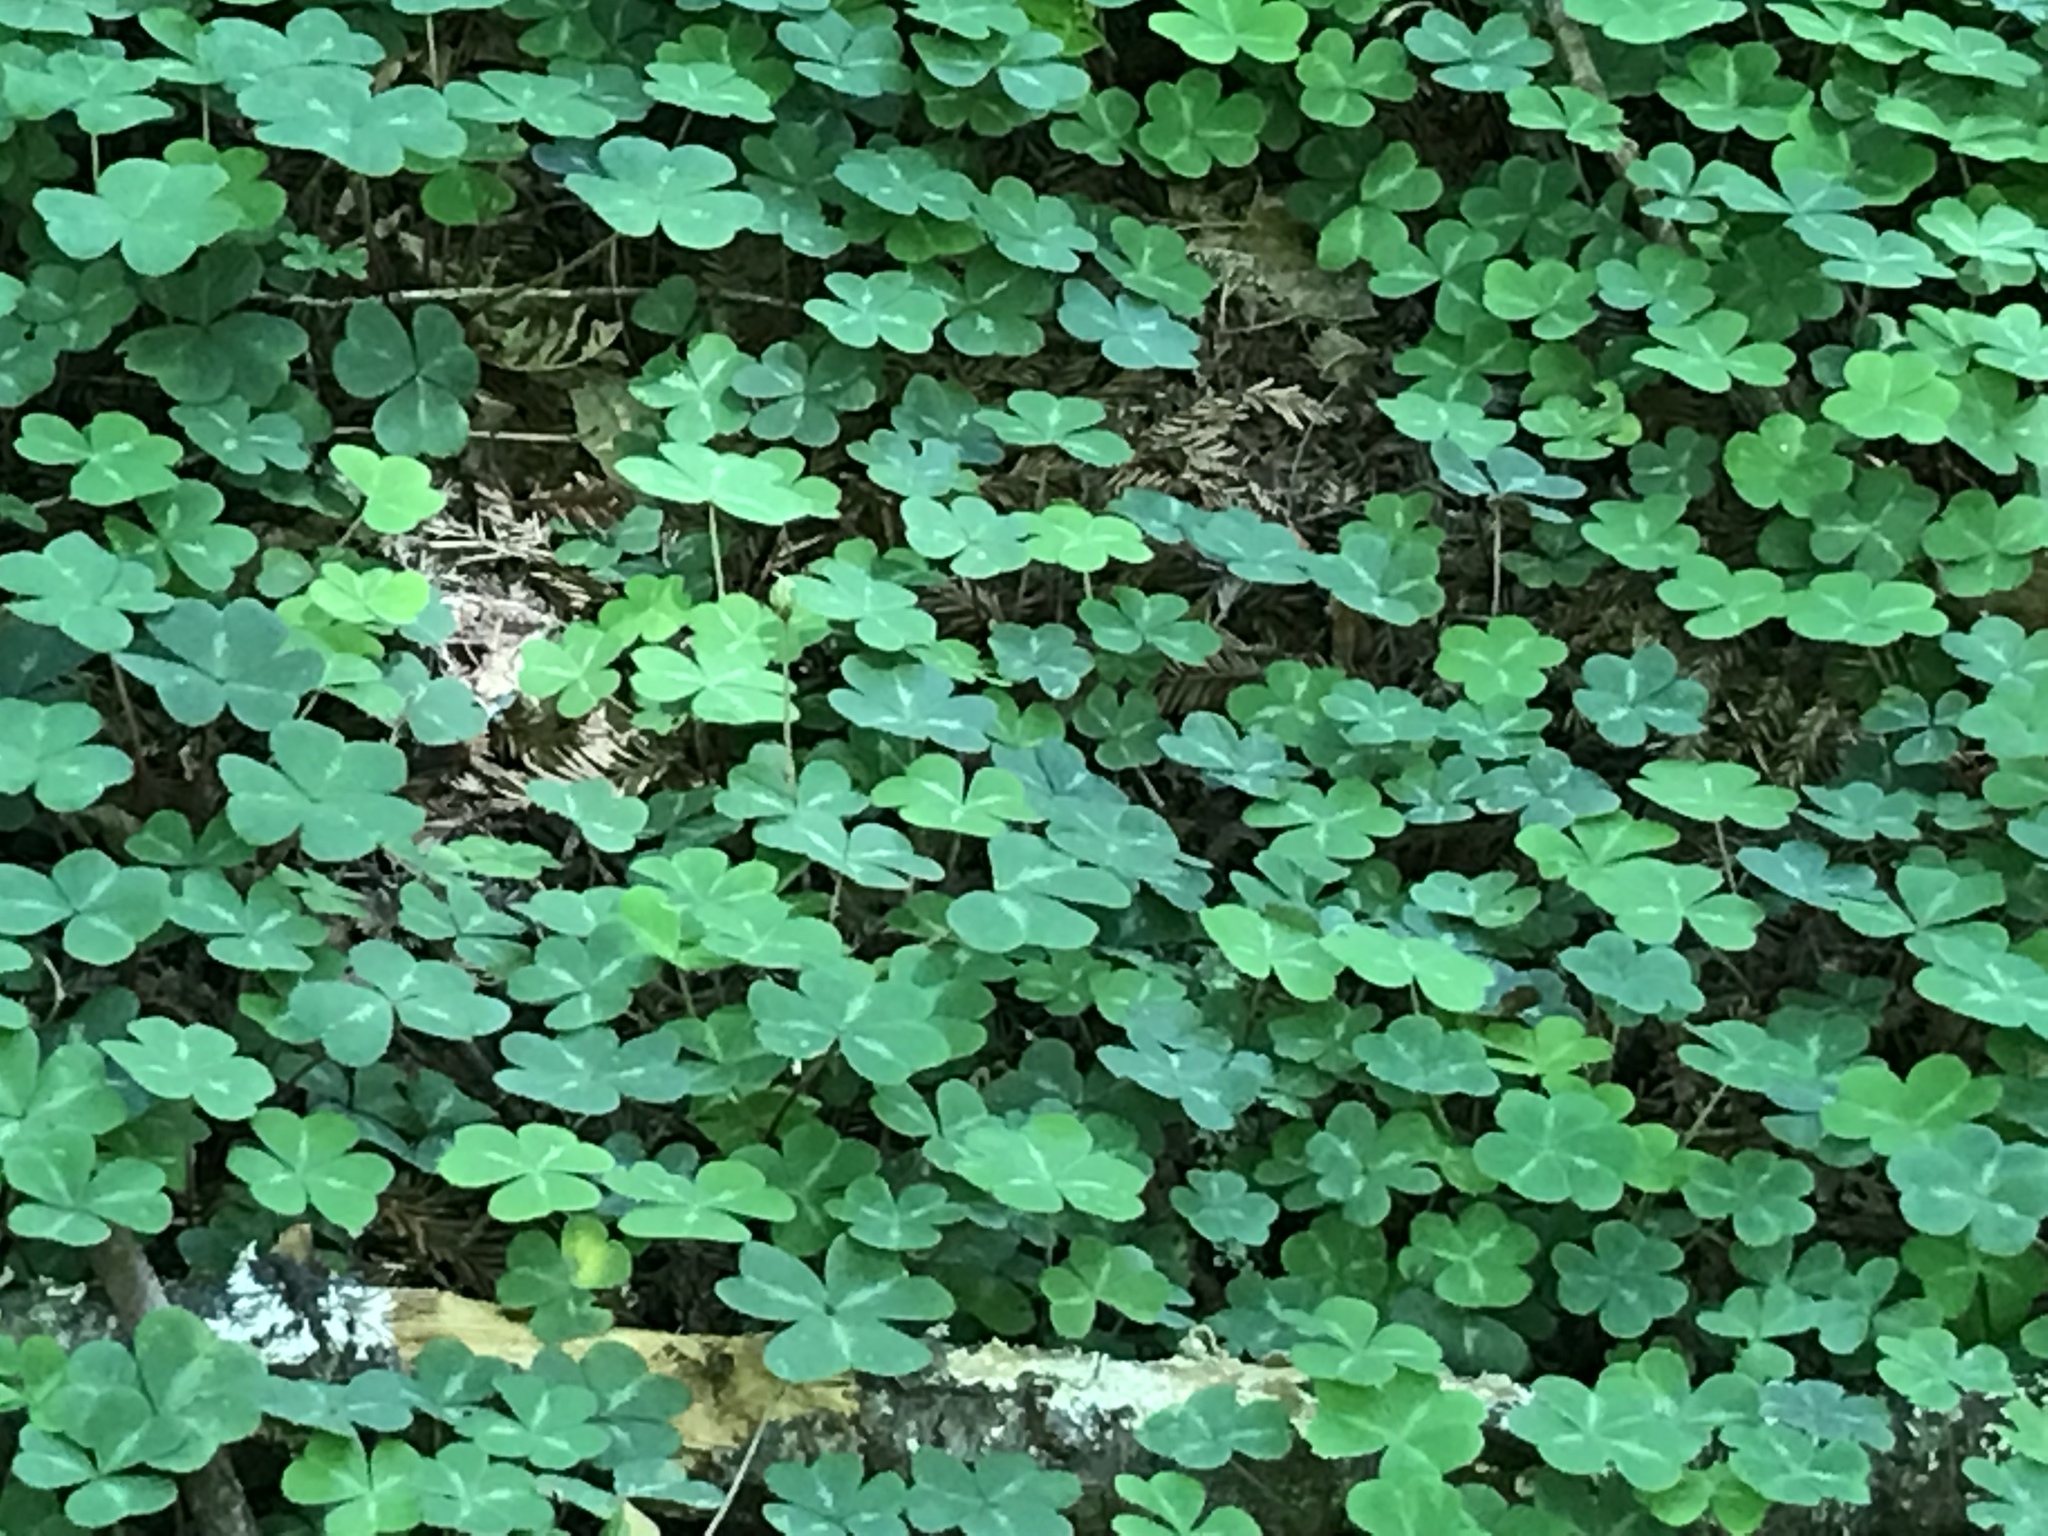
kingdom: Plantae
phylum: Tracheophyta
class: Magnoliopsida
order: Oxalidales
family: Oxalidaceae
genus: Oxalis
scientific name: Oxalis oregana
